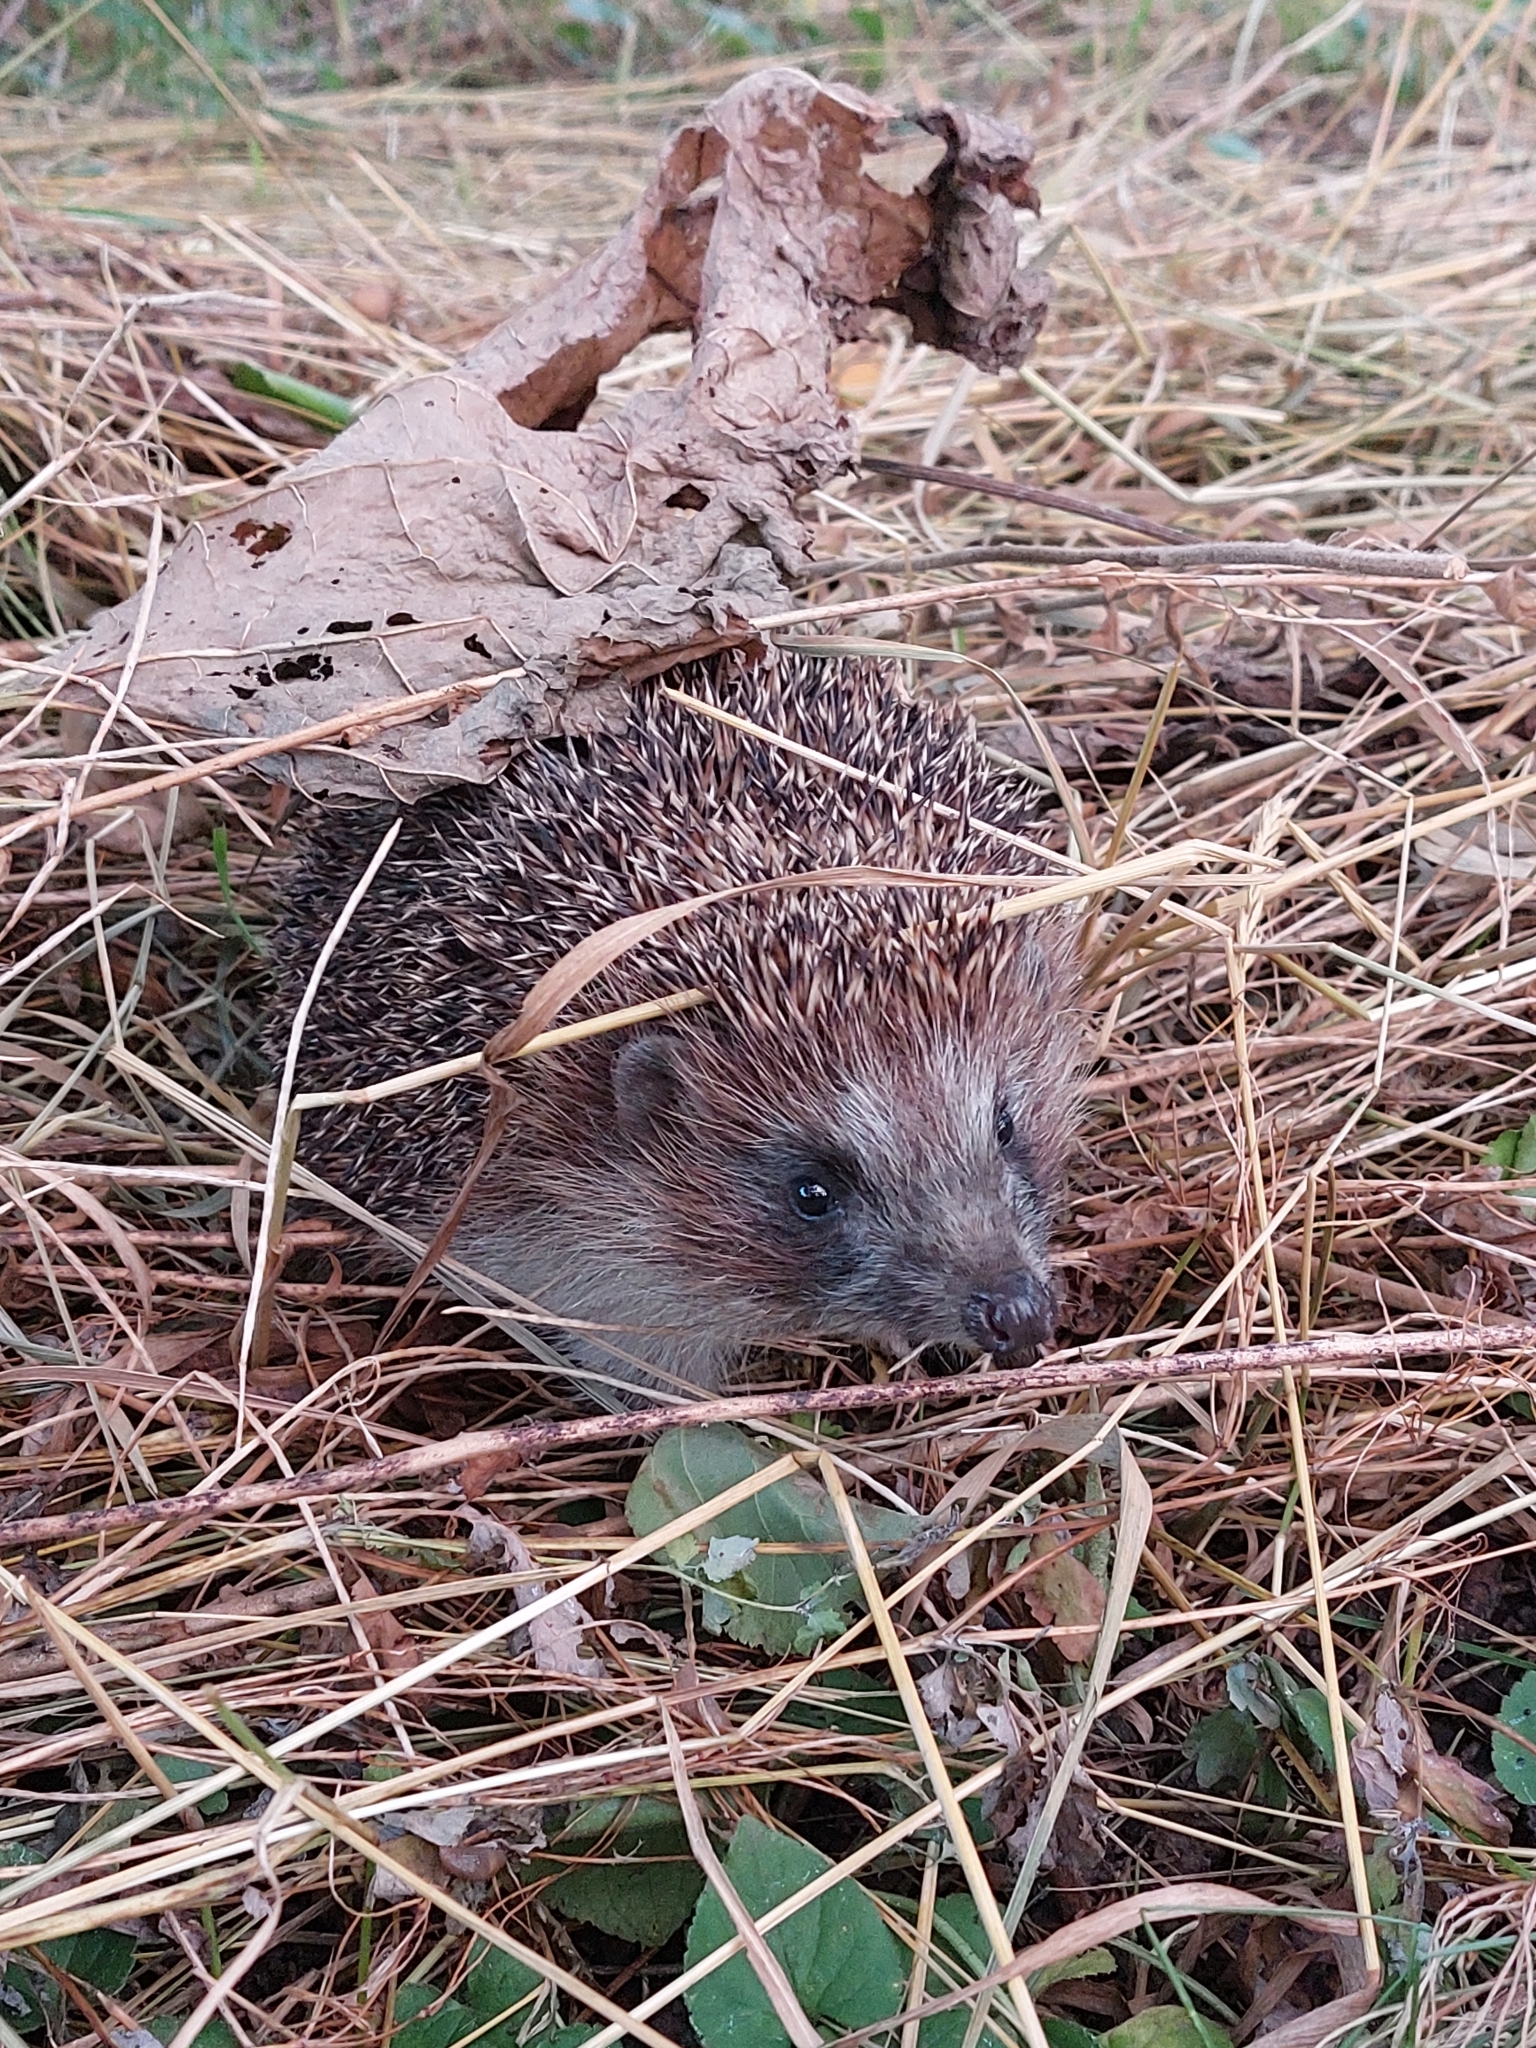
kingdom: Animalia
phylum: Chordata
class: Mammalia
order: Erinaceomorpha
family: Erinaceidae
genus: Erinaceus
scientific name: Erinaceus roumanicus
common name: Northern white-breasted hedgehog
